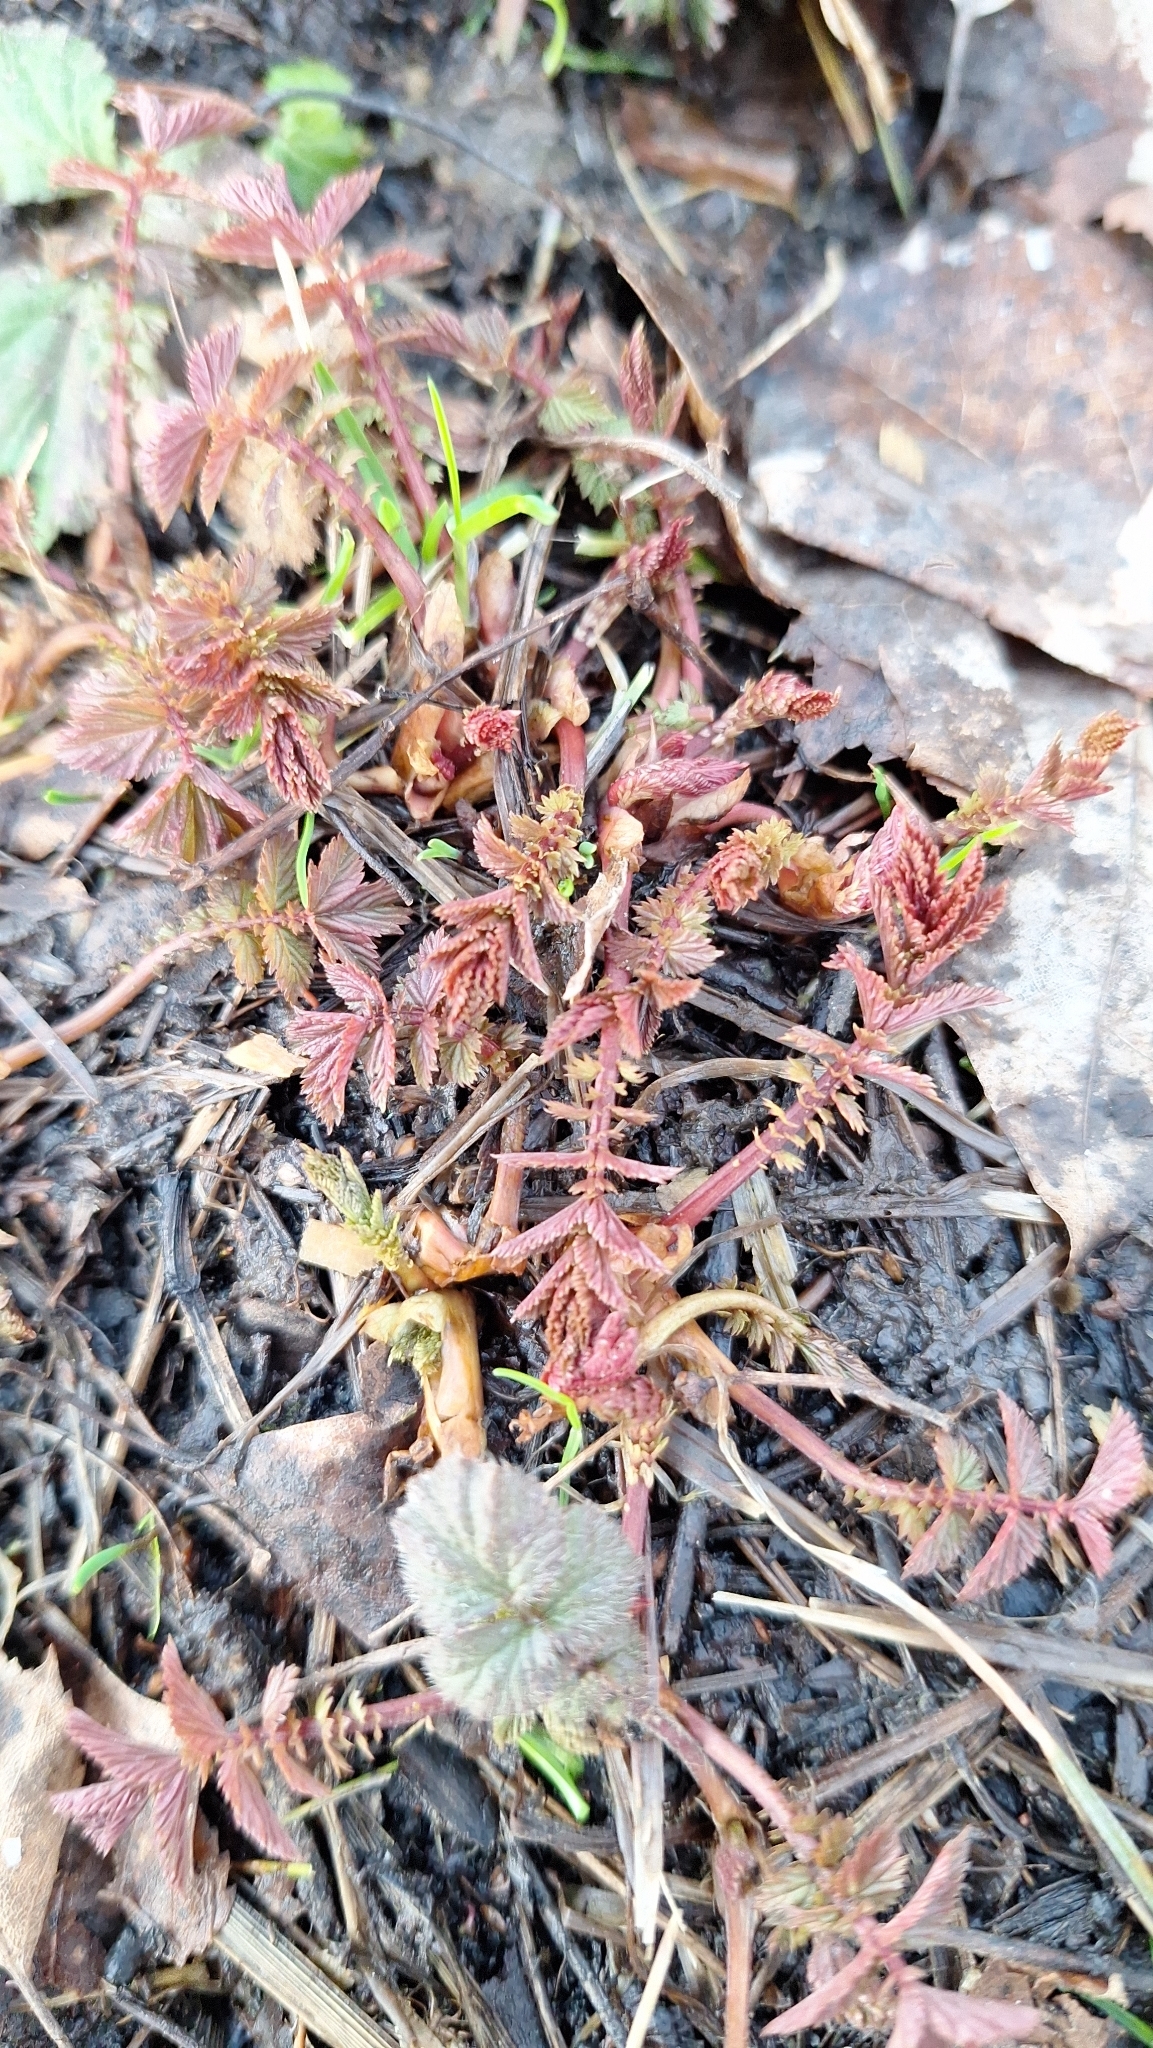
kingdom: Plantae
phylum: Tracheophyta
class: Magnoliopsida
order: Rosales
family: Rosaceae
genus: Filipendula
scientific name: Filipendula ulmaria
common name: Meadowsweet
